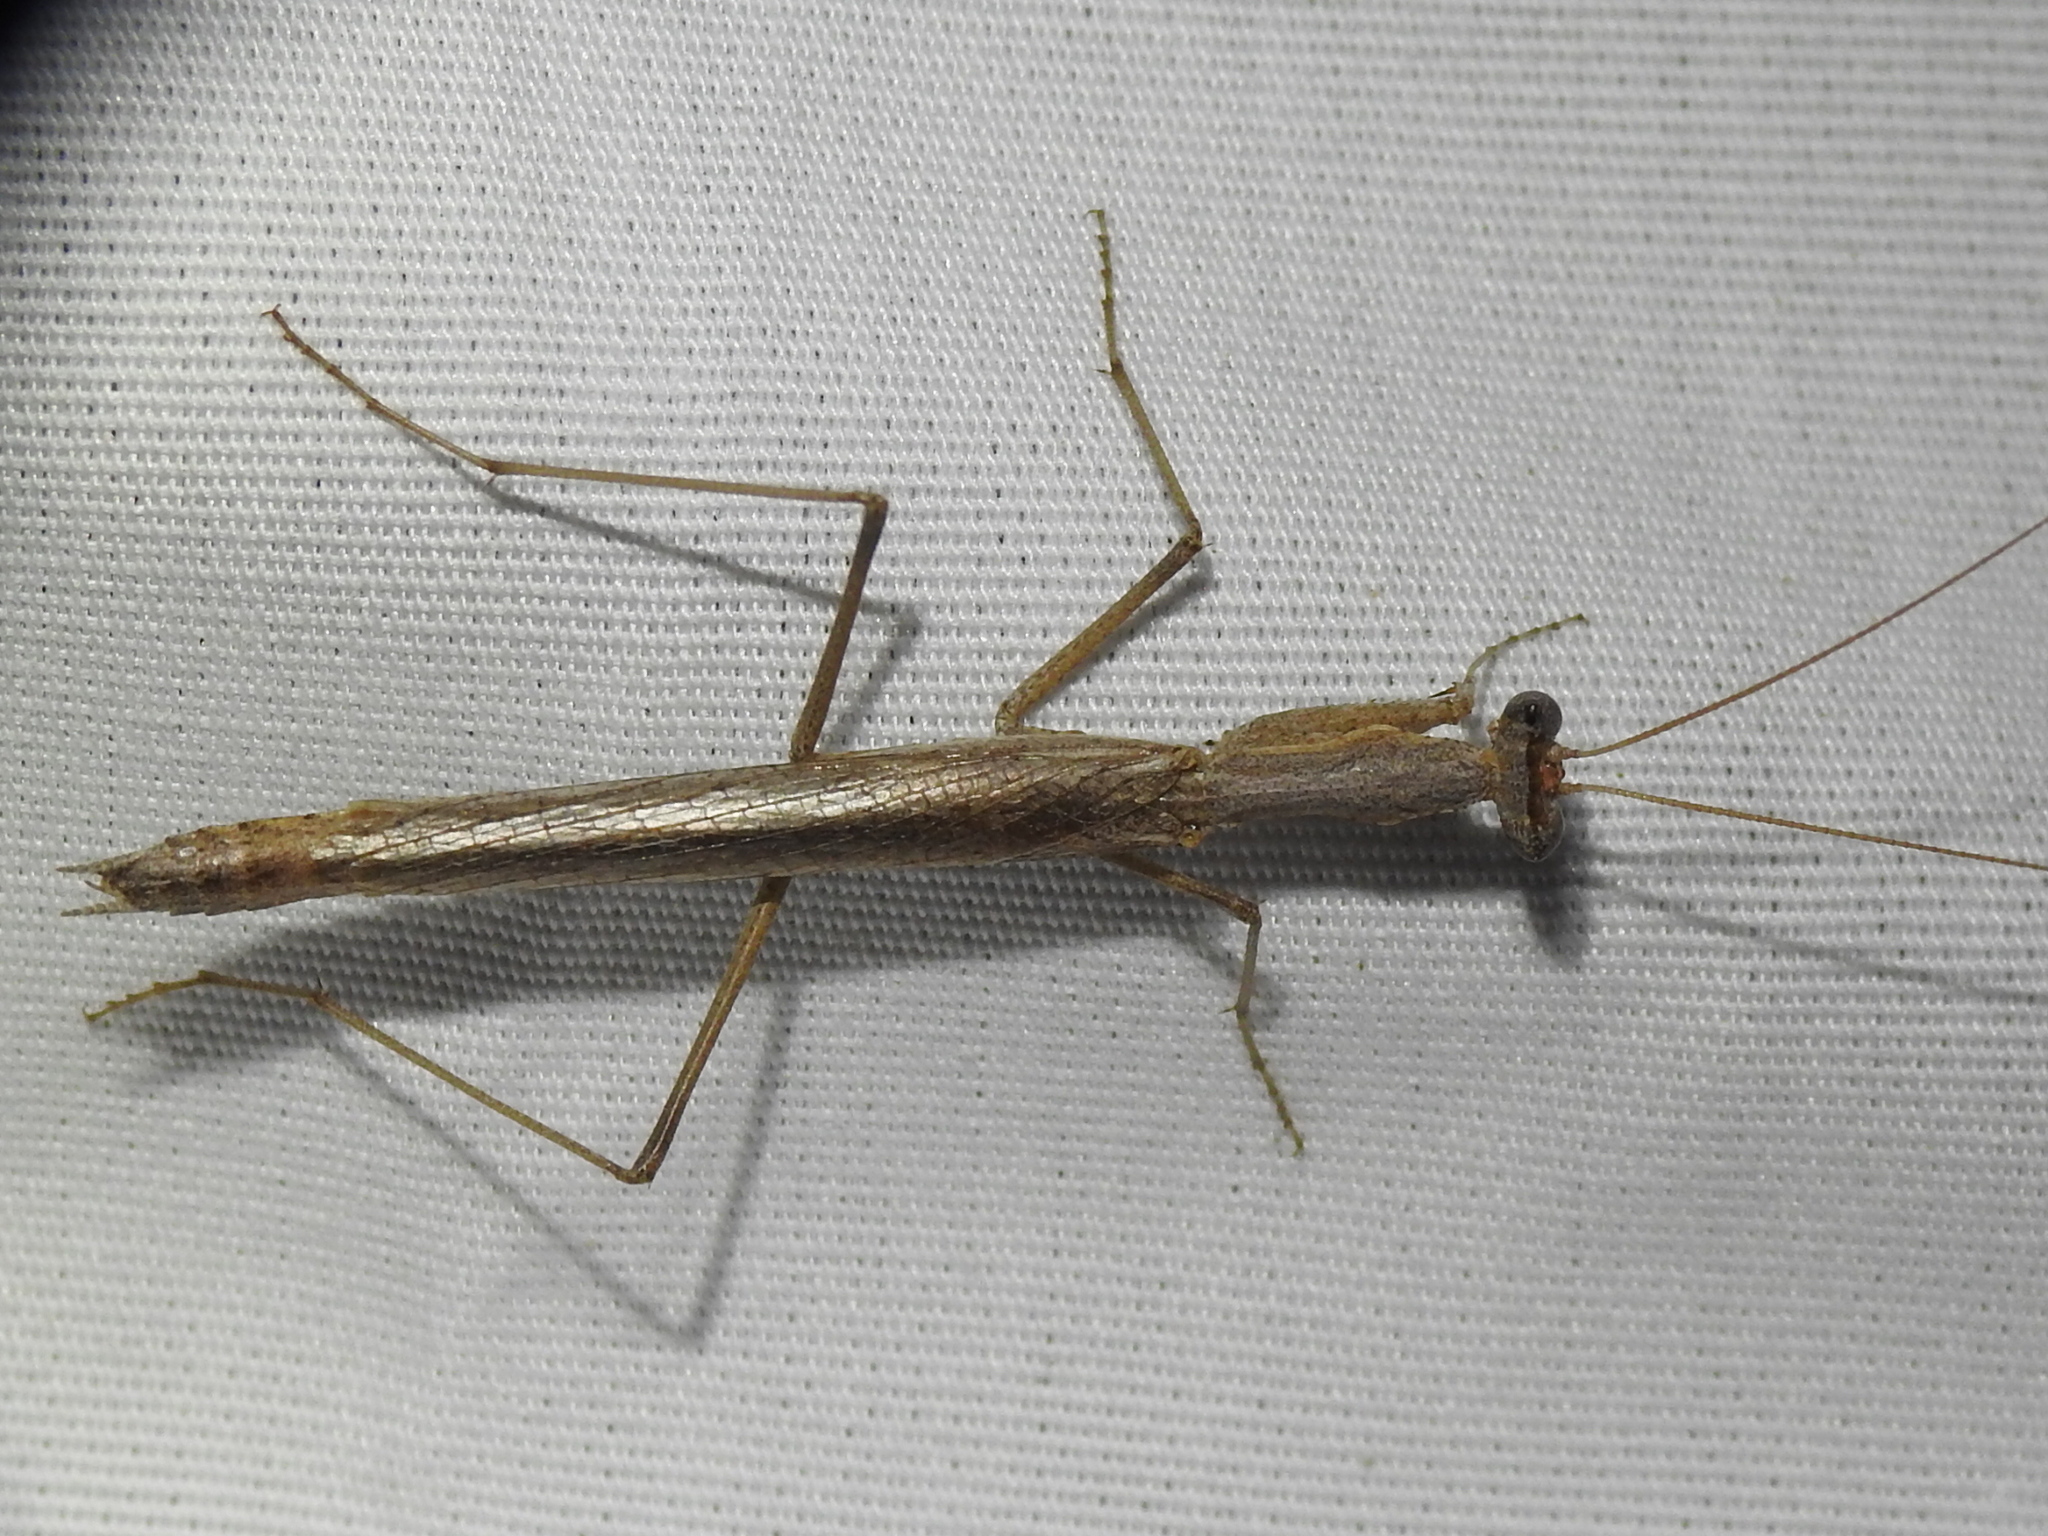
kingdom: Animalia
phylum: Arthropoda
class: Insecta
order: Mantodea
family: Amelidae
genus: Litaneutria
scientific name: Litaneutria minor
